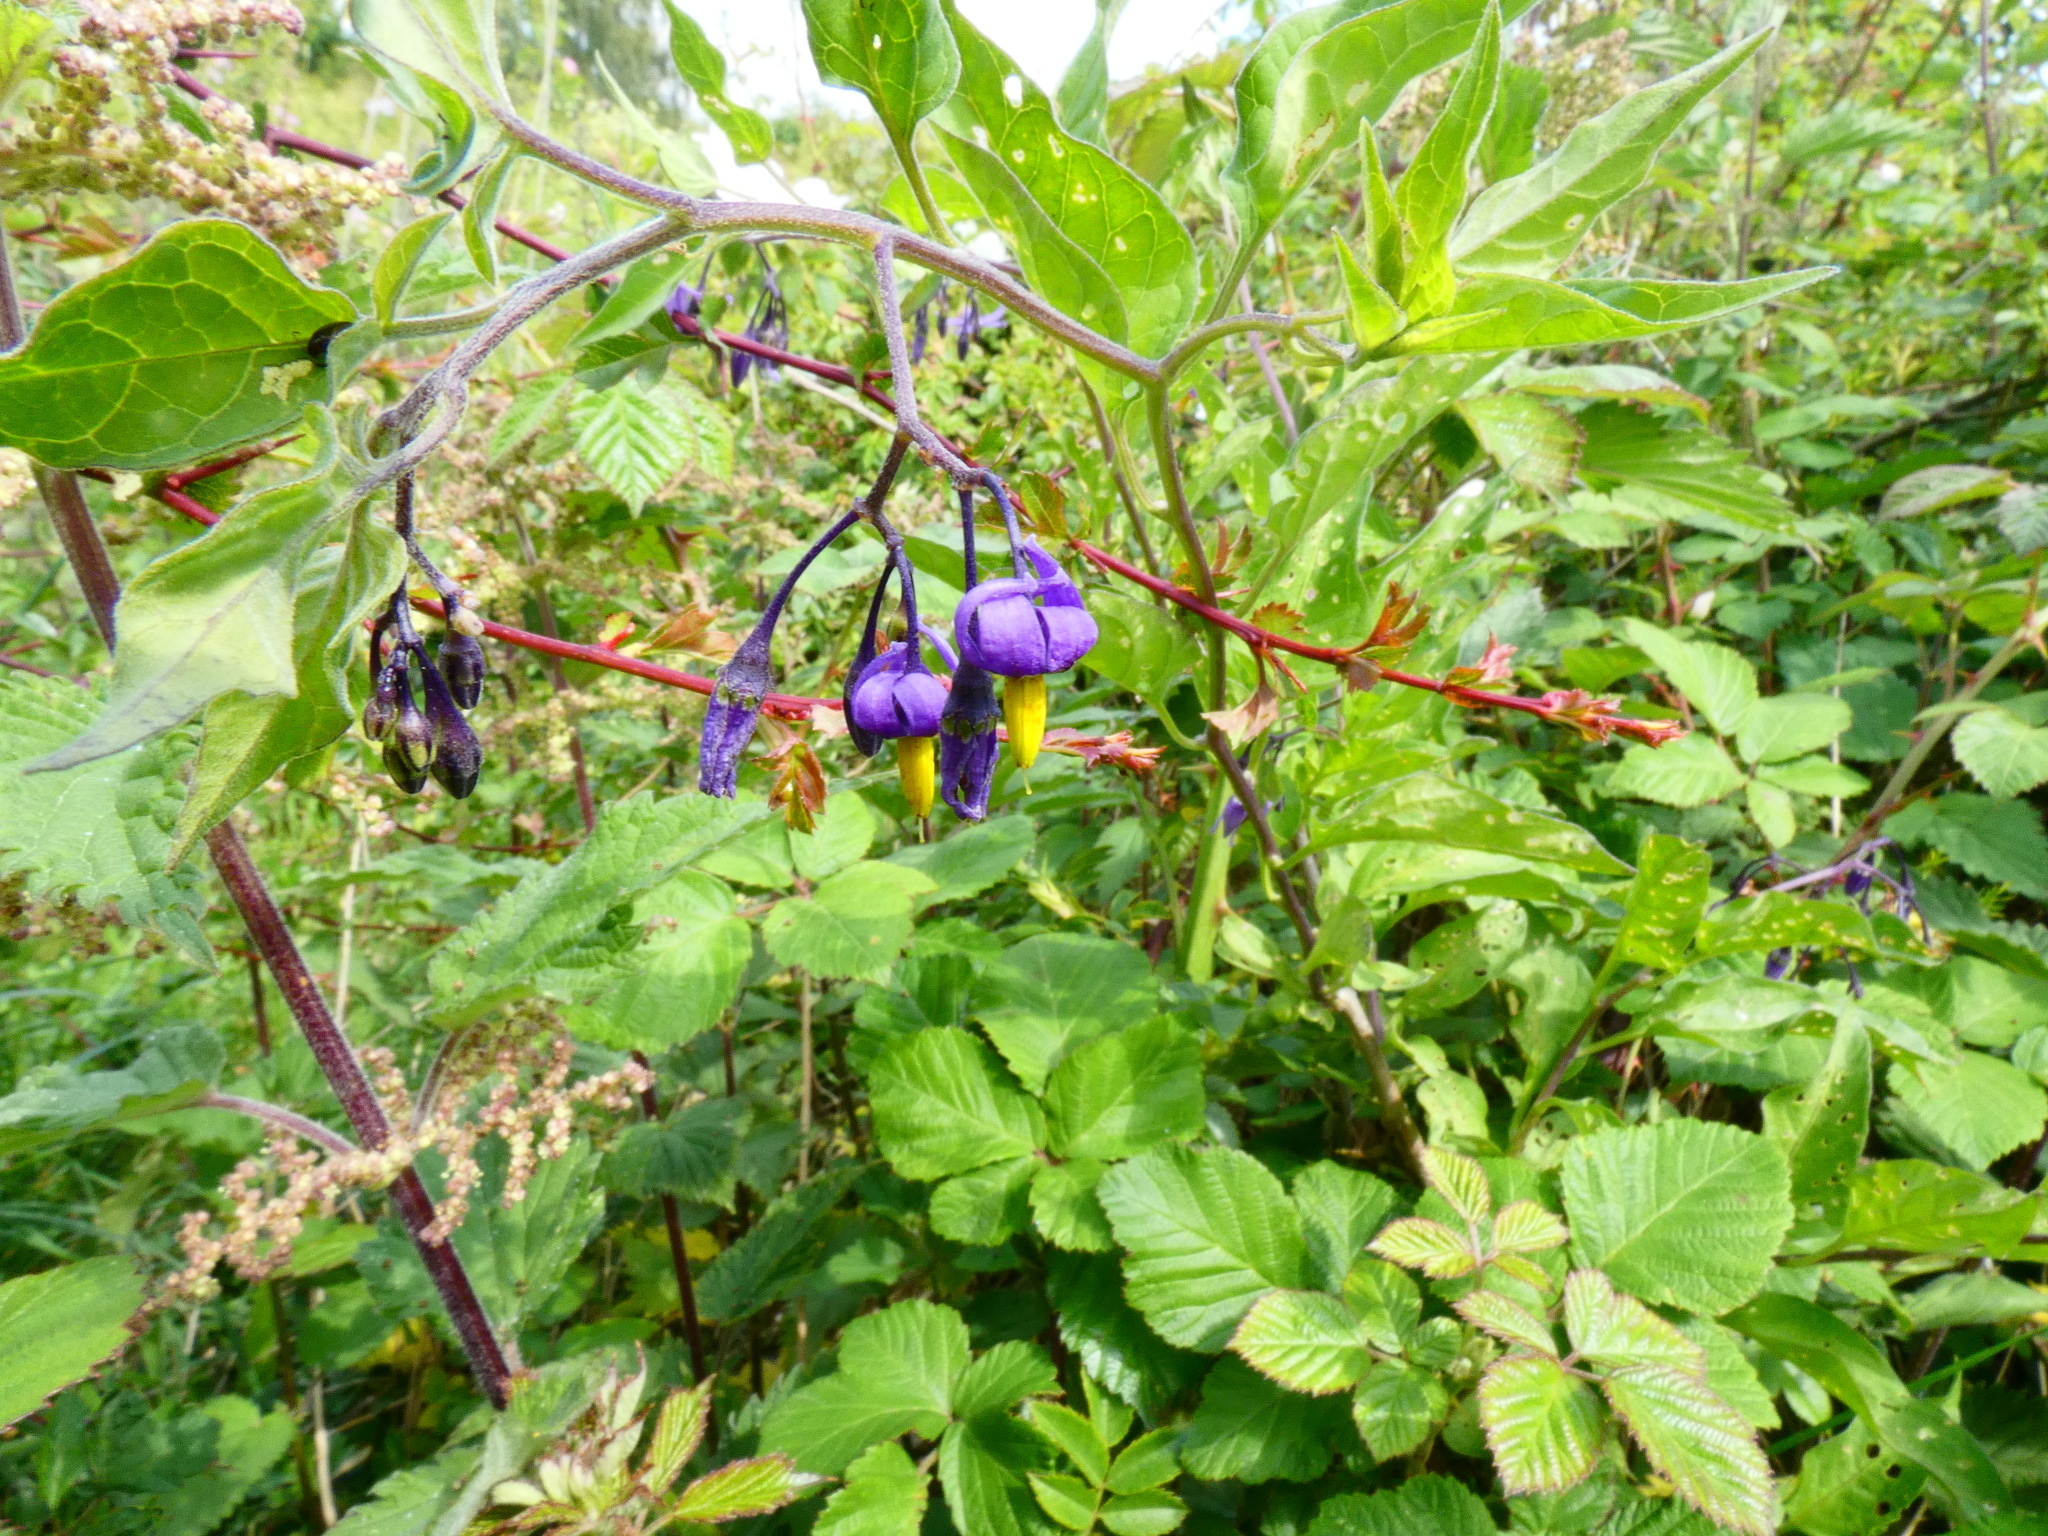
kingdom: Plantae
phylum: Tracheophyta
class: Magnoliopsida
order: Solanales
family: Solanaceae
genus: Solanum
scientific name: Solanum dulcamara
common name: Climbing nightshade
